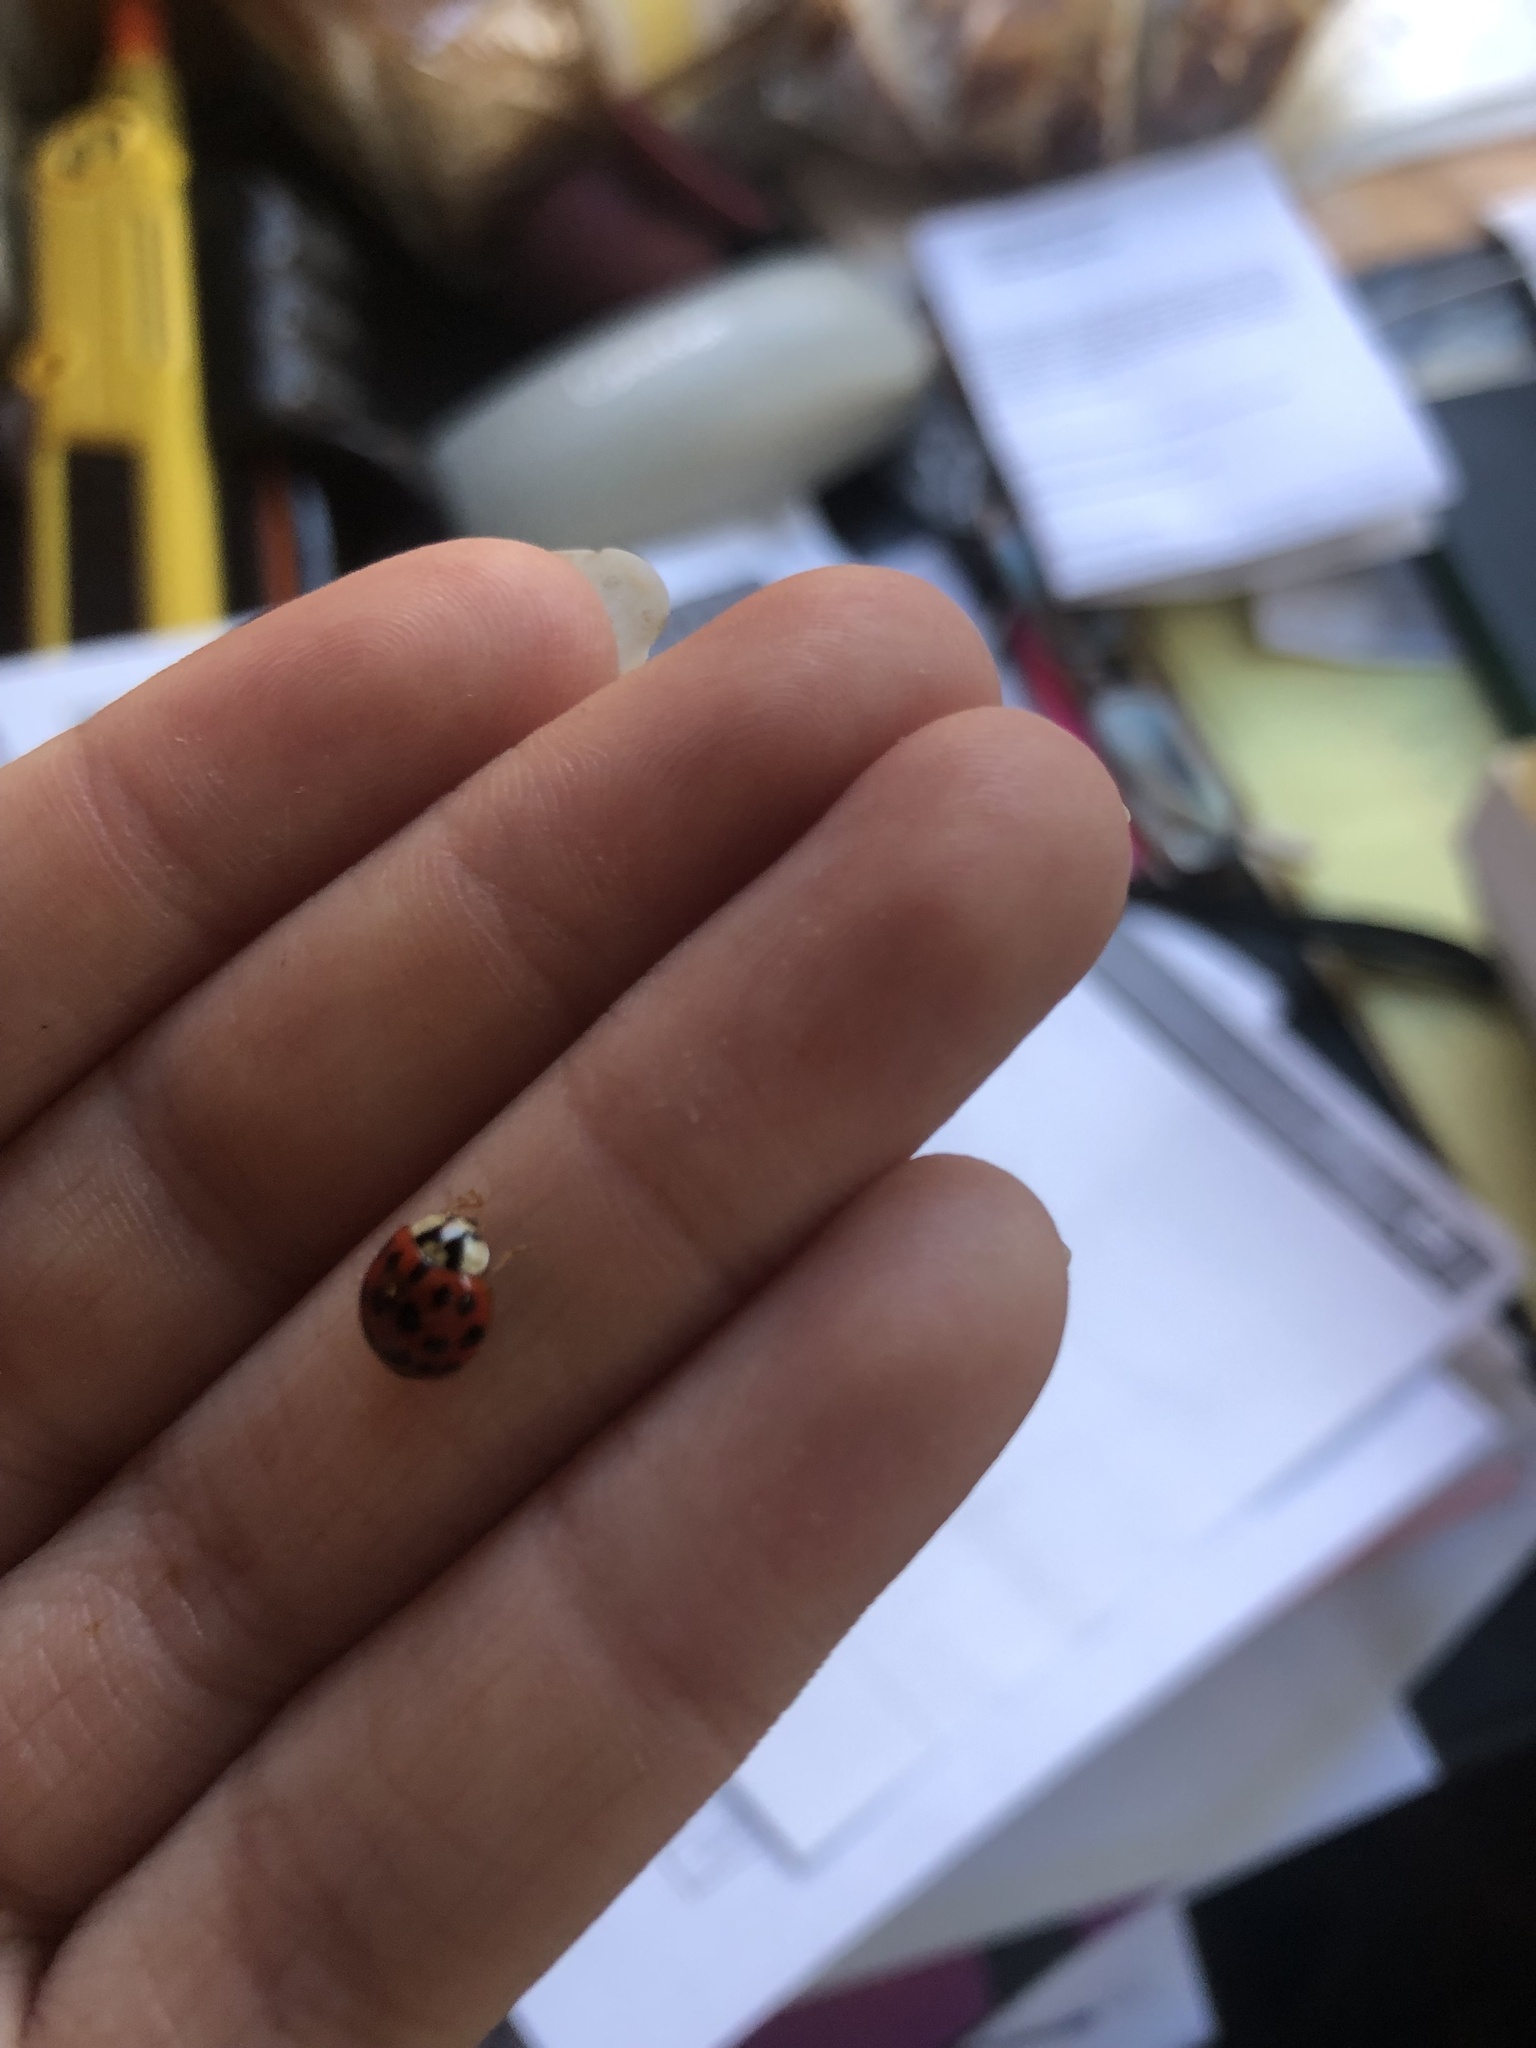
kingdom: Animalia
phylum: Arthropoda
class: Insecta
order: Coleoptera
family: Coccinellidae
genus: Harmonia
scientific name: Harmonia axyridis
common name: Harlequin ladybird
